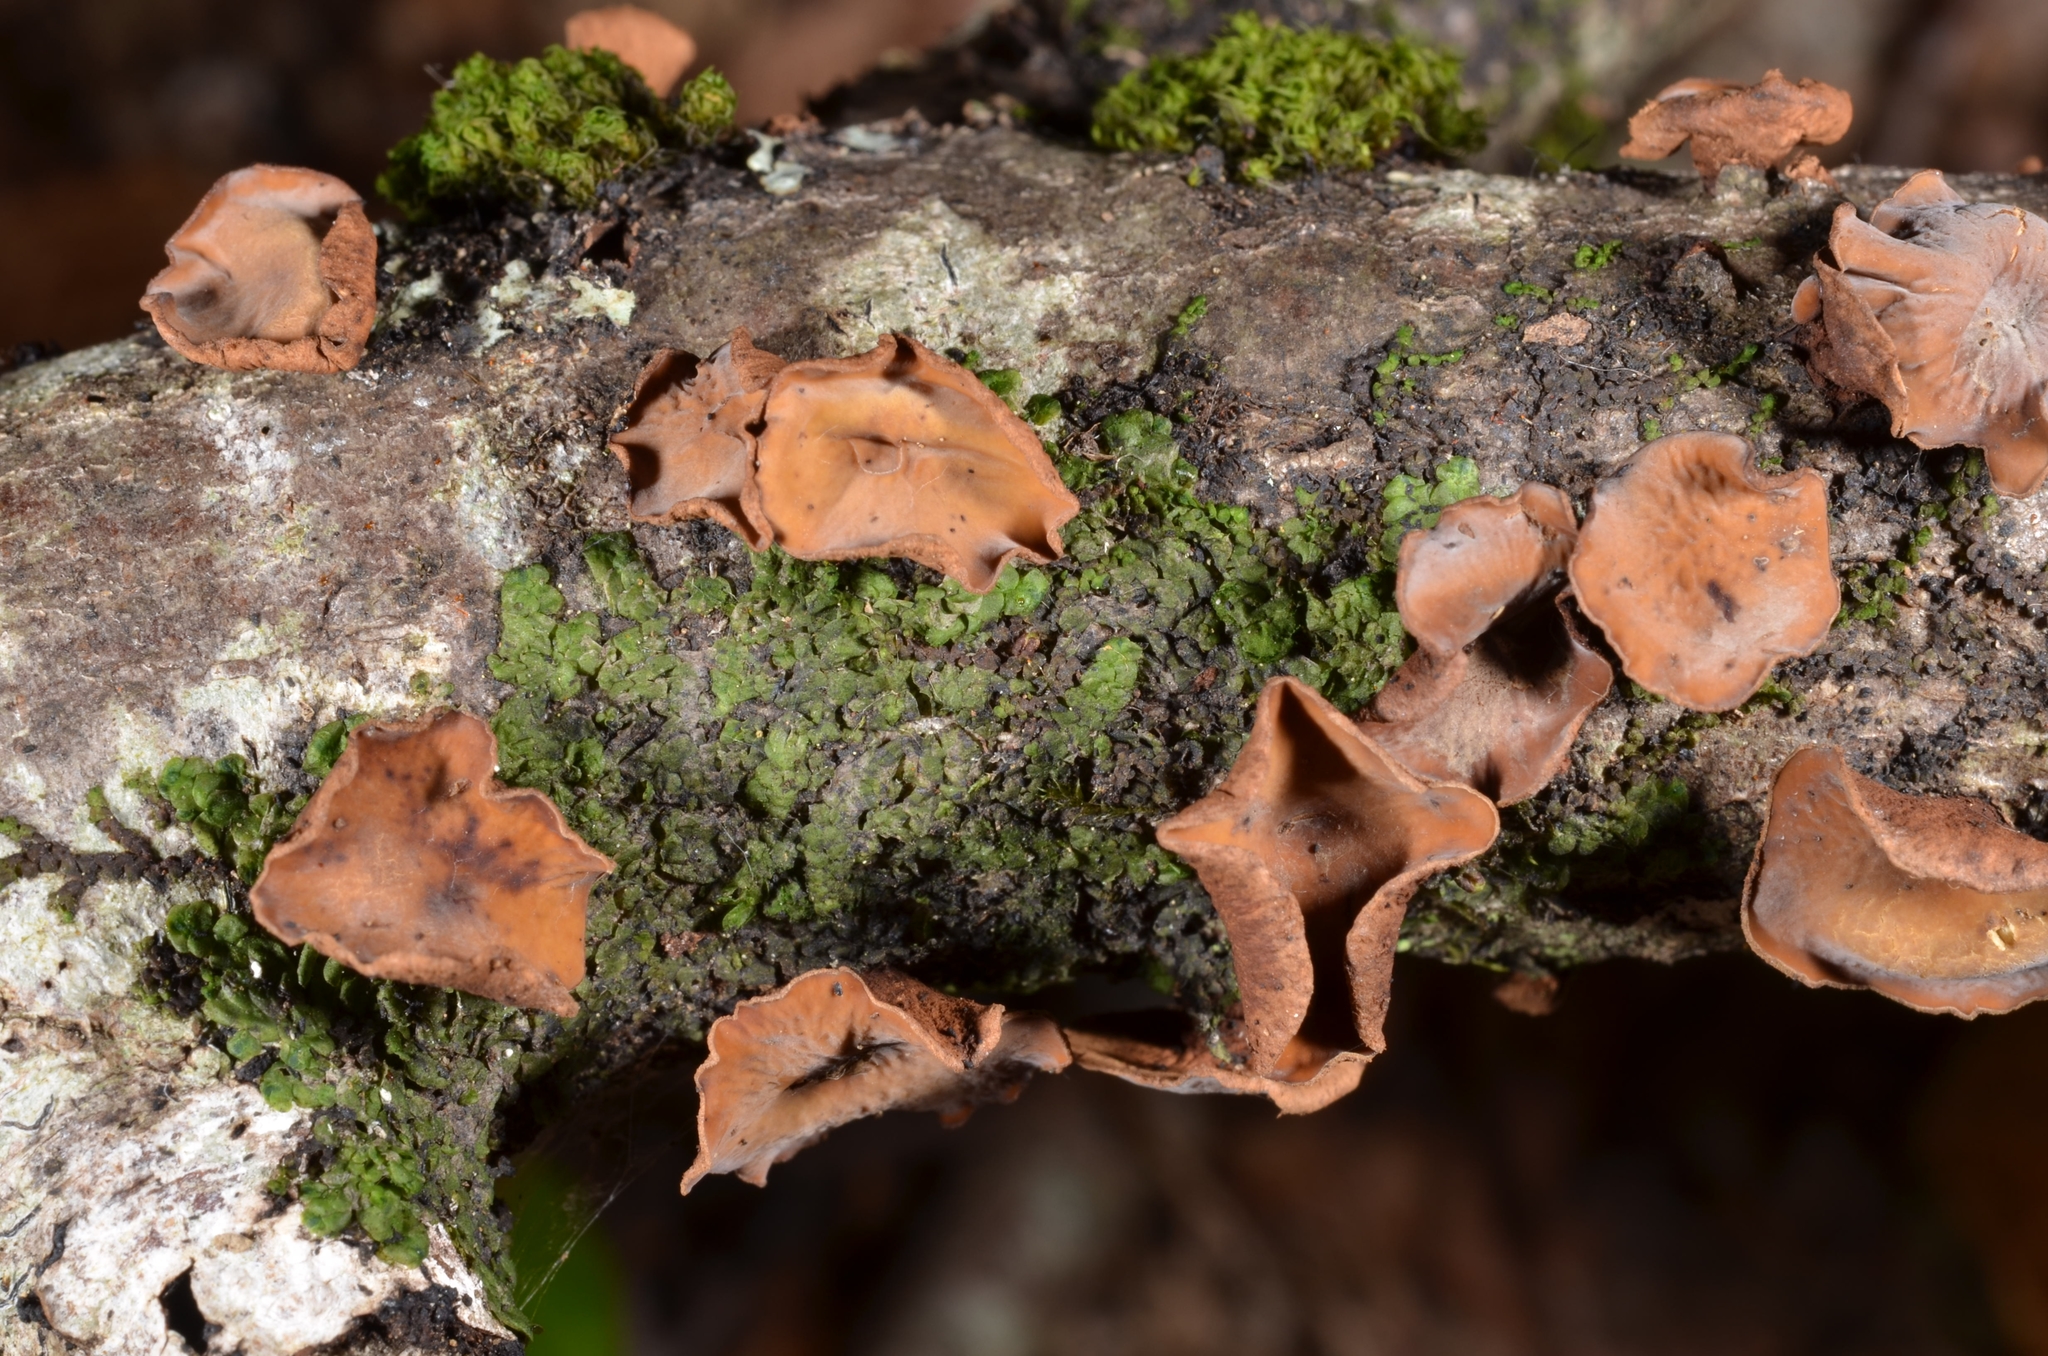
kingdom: Fungi
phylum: Ascomycota
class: Leotiomycetes
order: Helotiales
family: Cenangiaceae
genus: Encoelia
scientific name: Encoelia glaberrima
